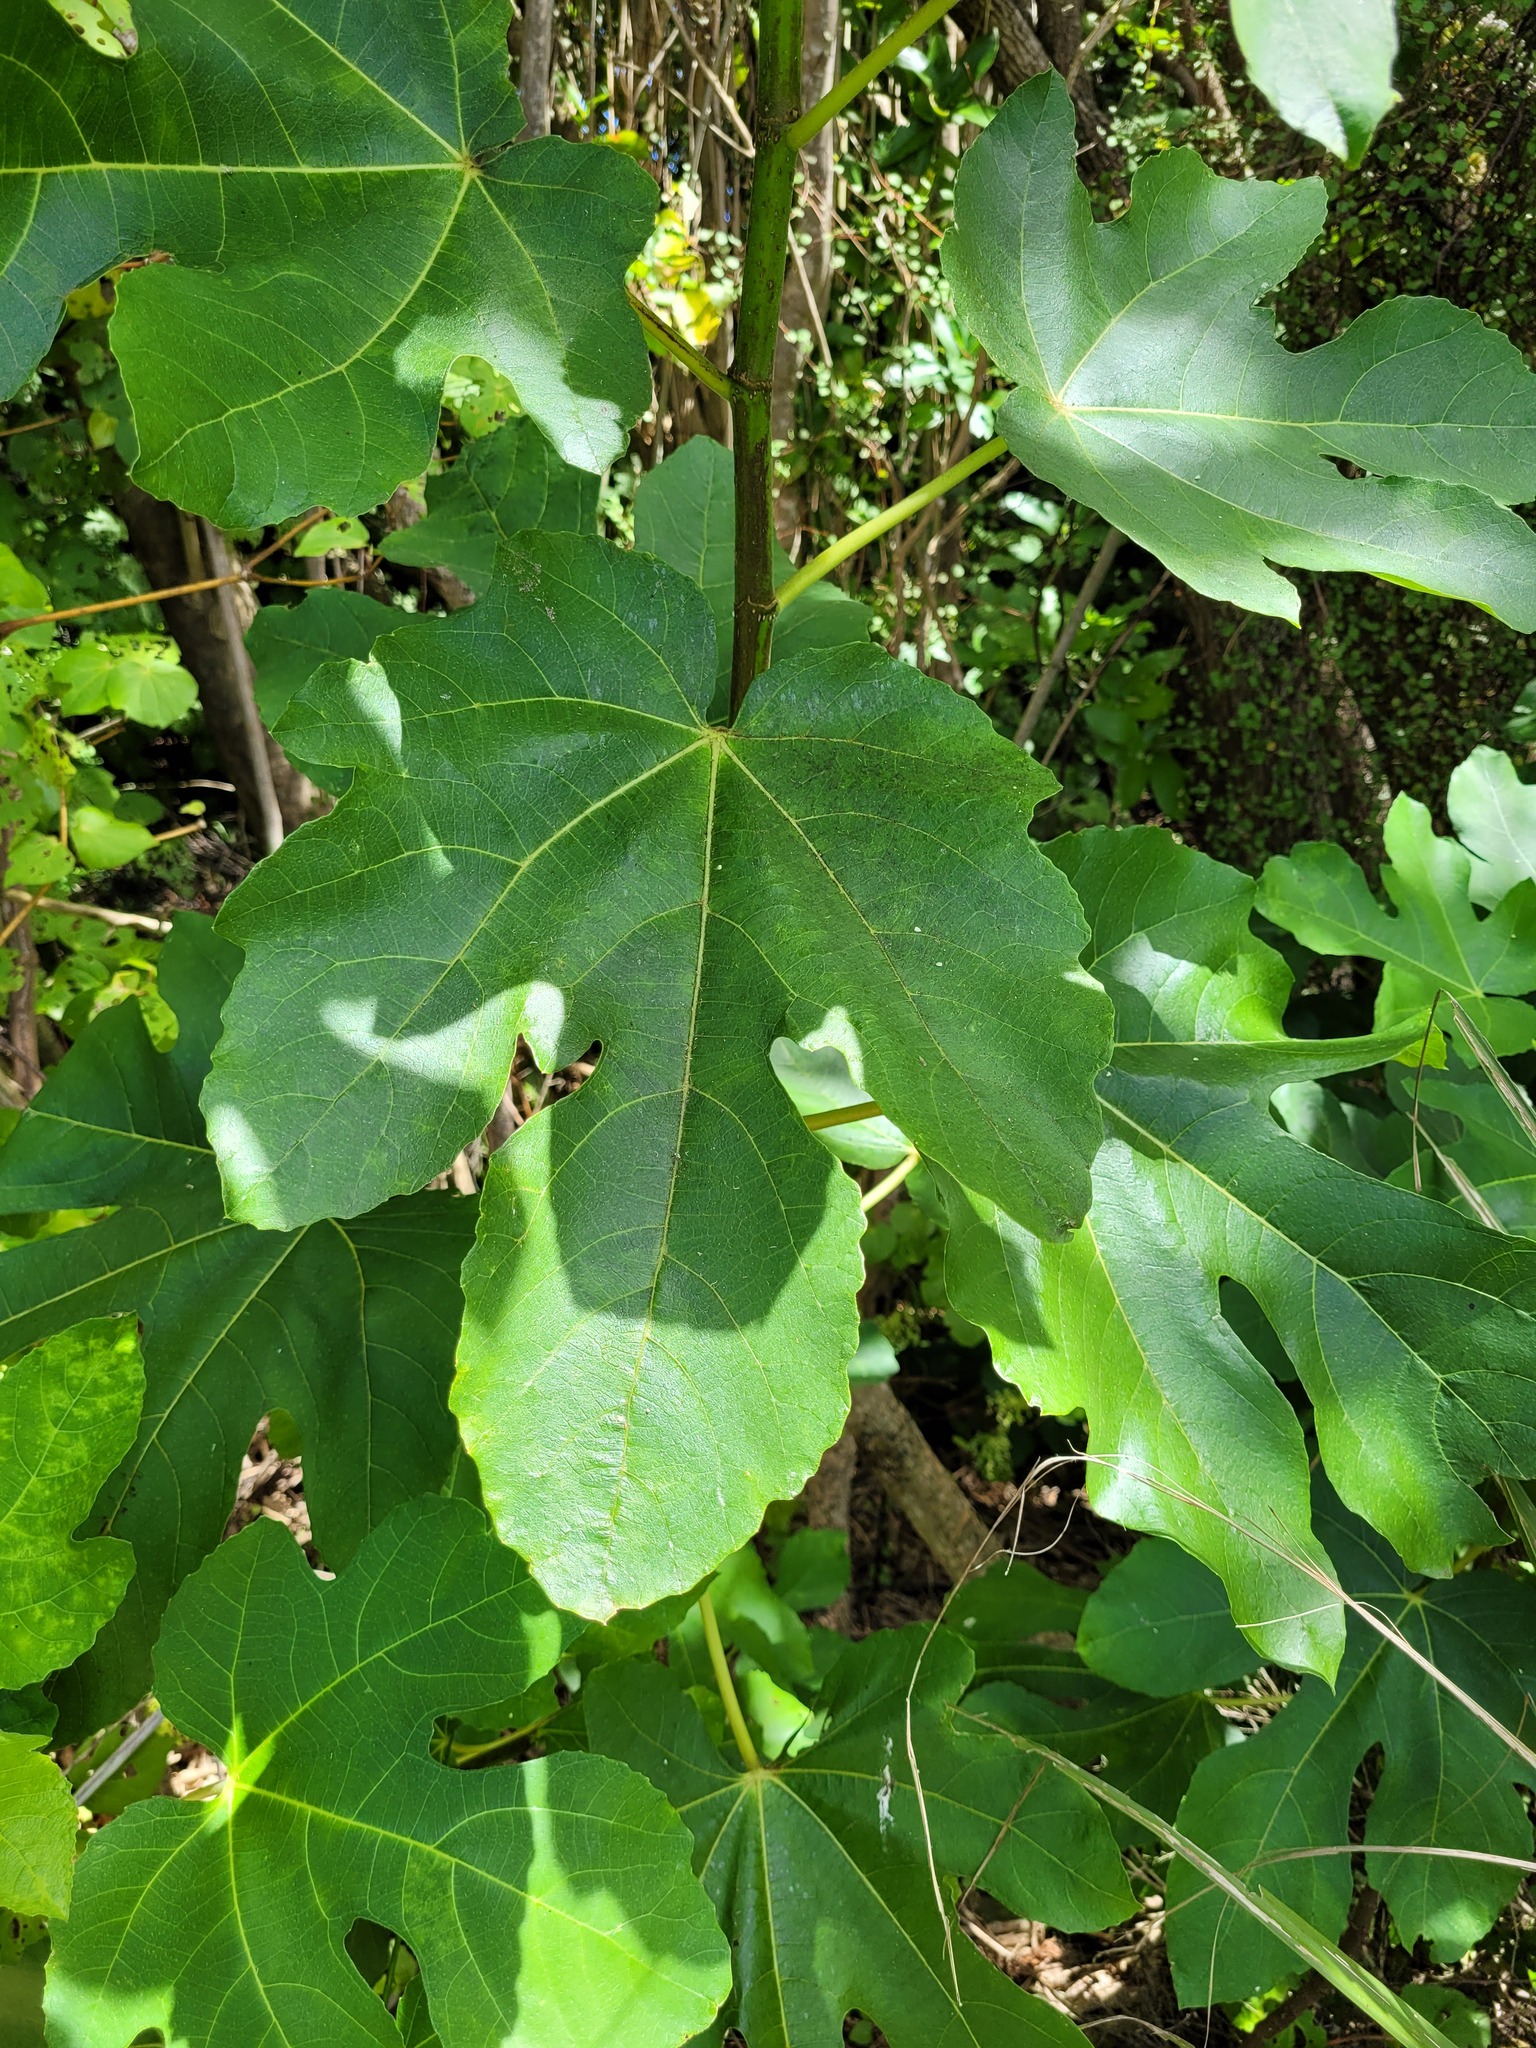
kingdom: Plantae
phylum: Tracheophyta
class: Magnoliopsida
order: Rosales
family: Moraceae
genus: Ficus
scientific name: Ficus carica
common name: Fig
